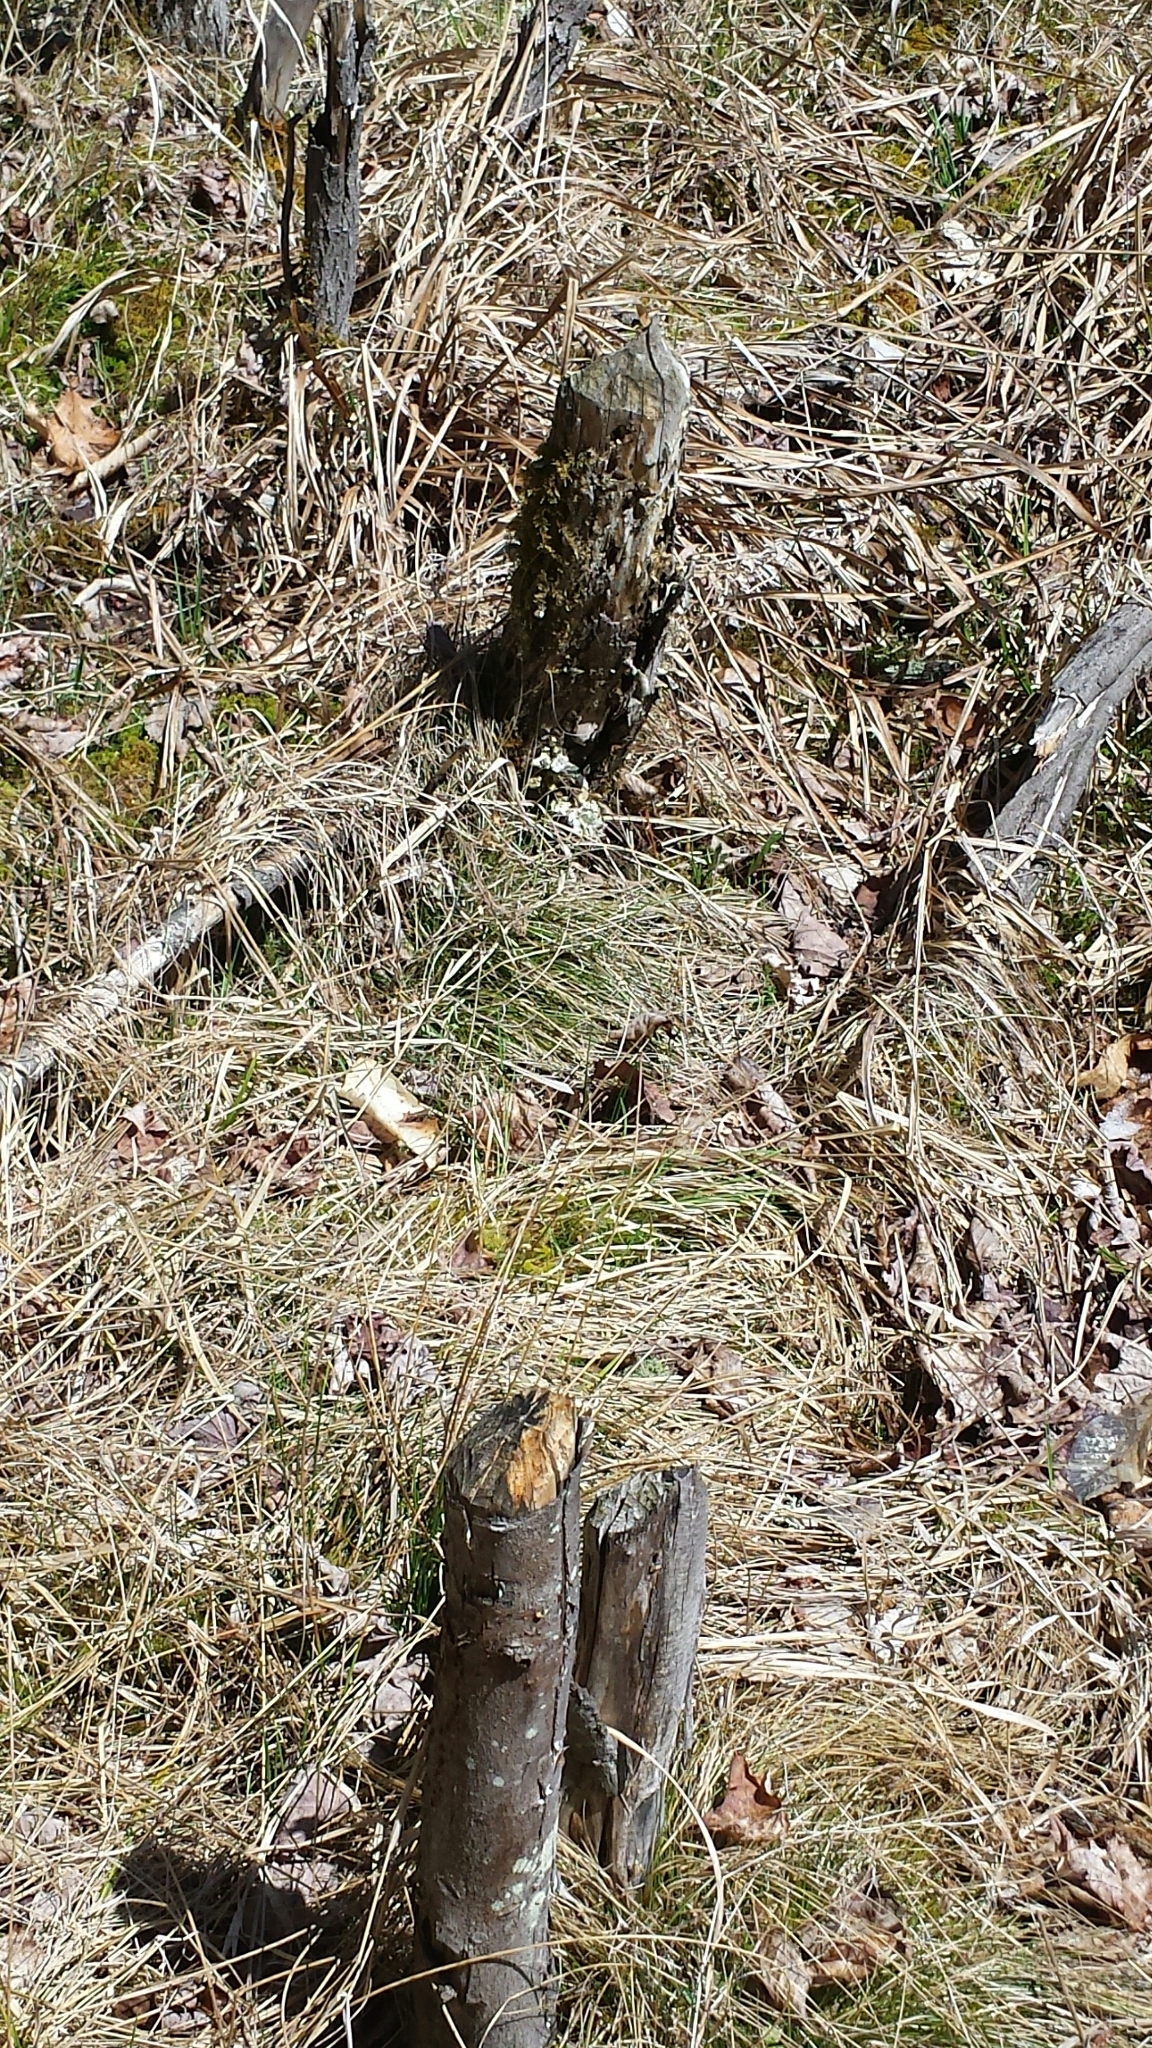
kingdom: Animalia
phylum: Chordata
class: Mammalia
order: Rodentia
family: Castoridae
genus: Castor
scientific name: Castor canadensis
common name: American beaver
